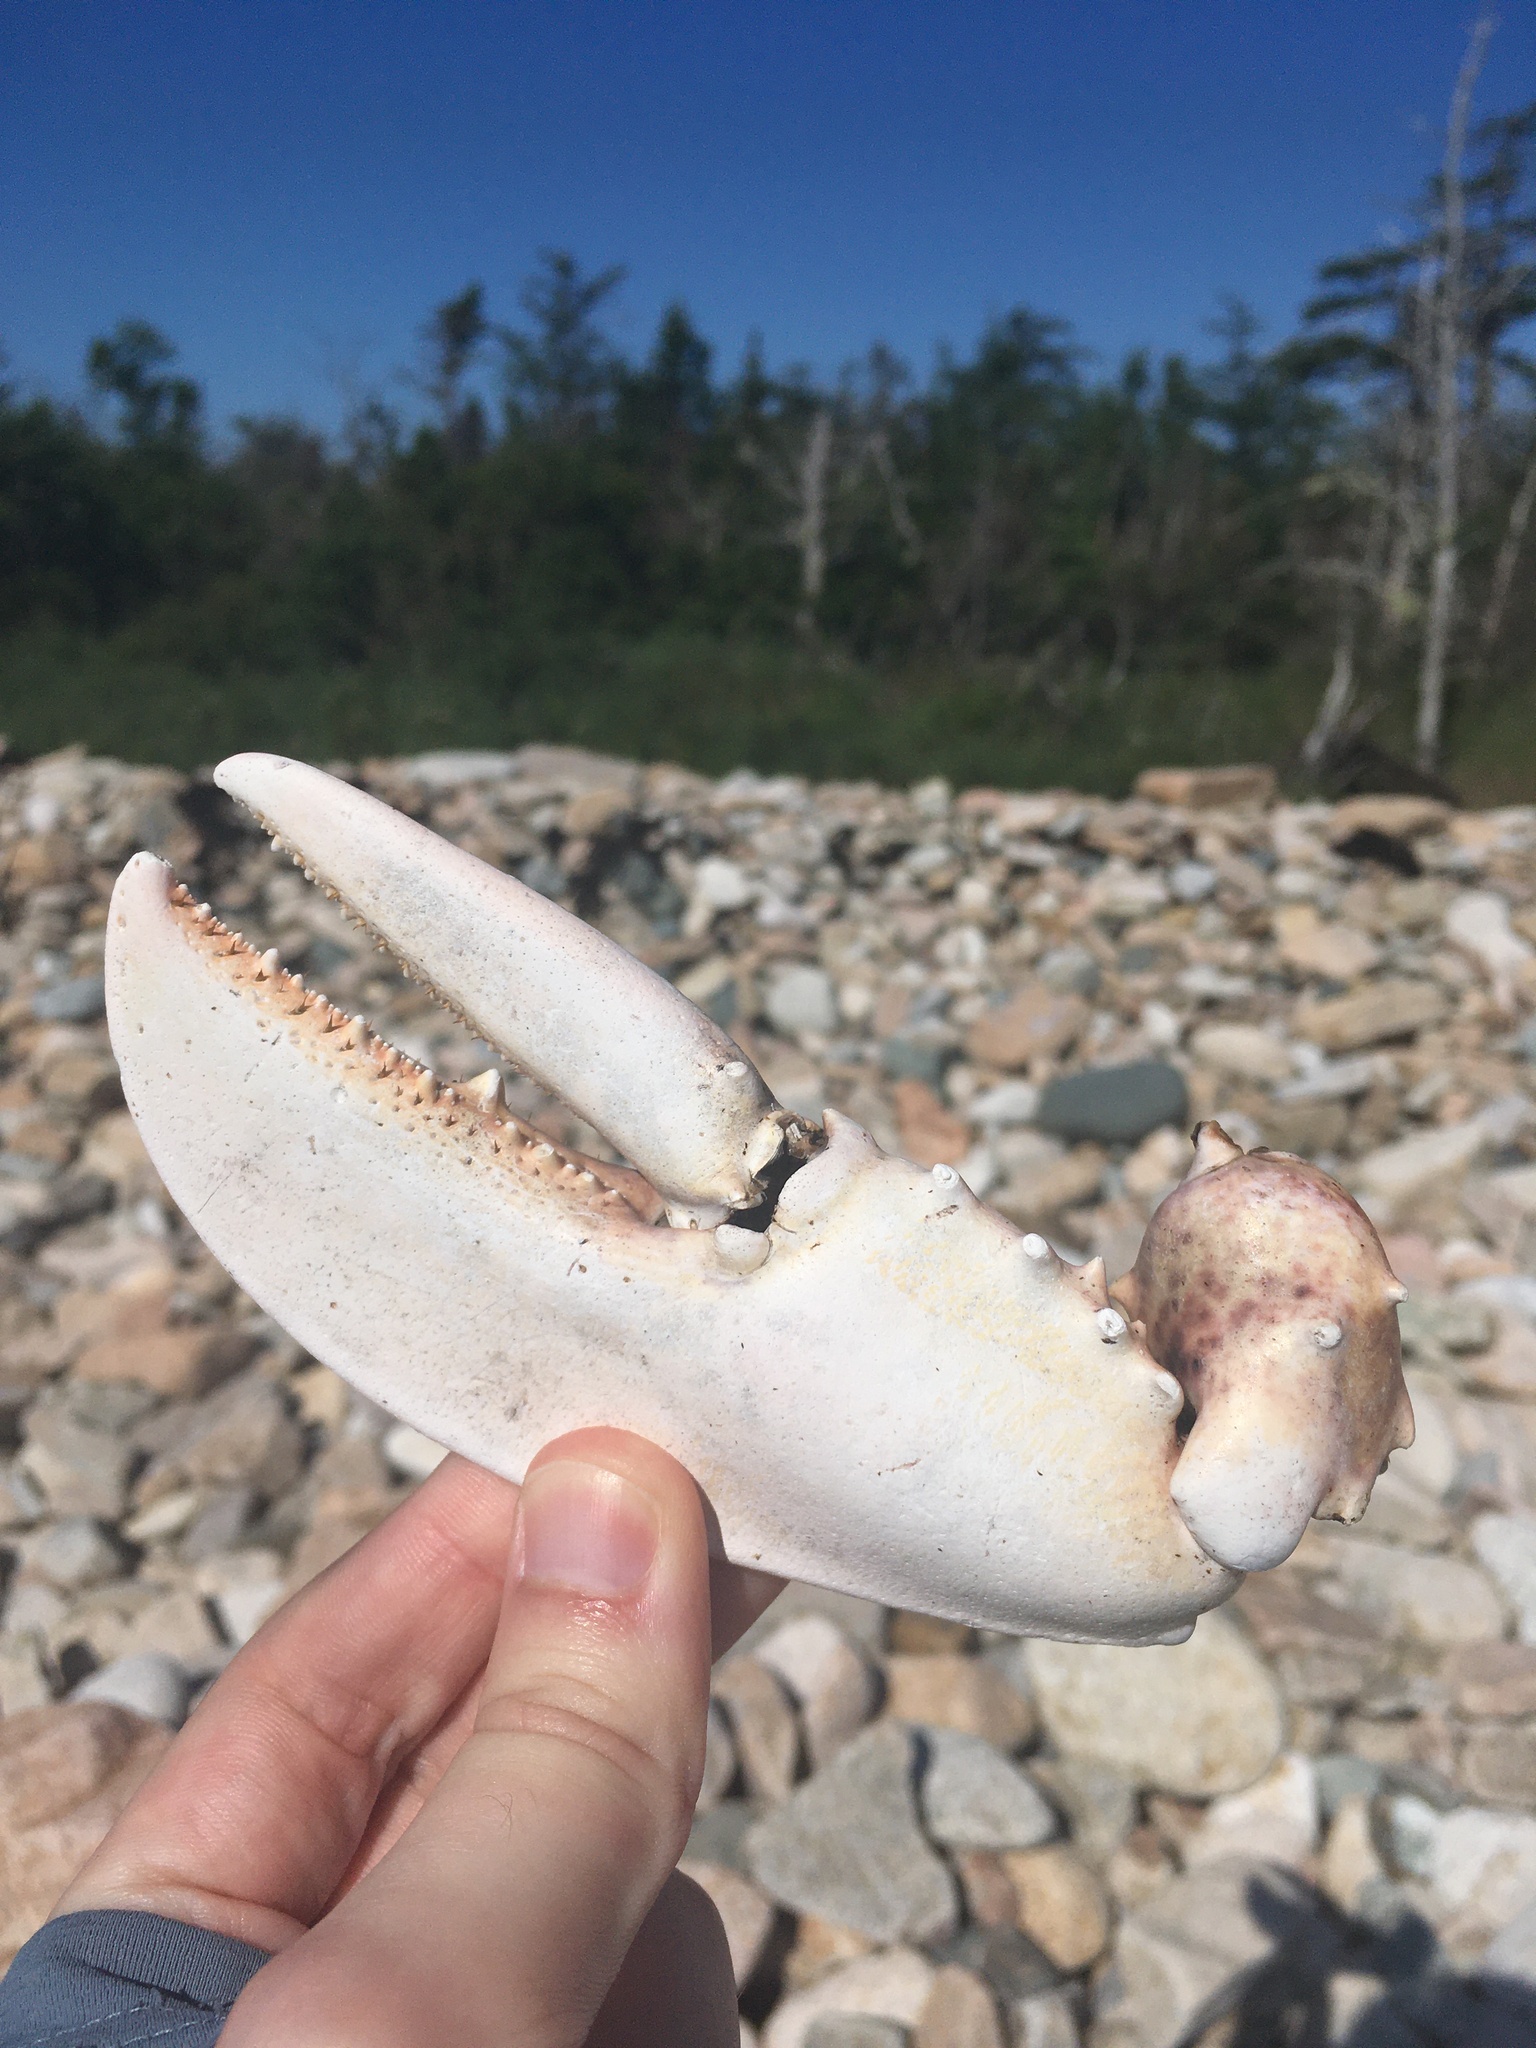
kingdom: Animalia
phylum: Arthropoda
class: Malacostraca
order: Decapoda
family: Nephropidae
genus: Homarus
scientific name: Homarus americanus
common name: American lobster
